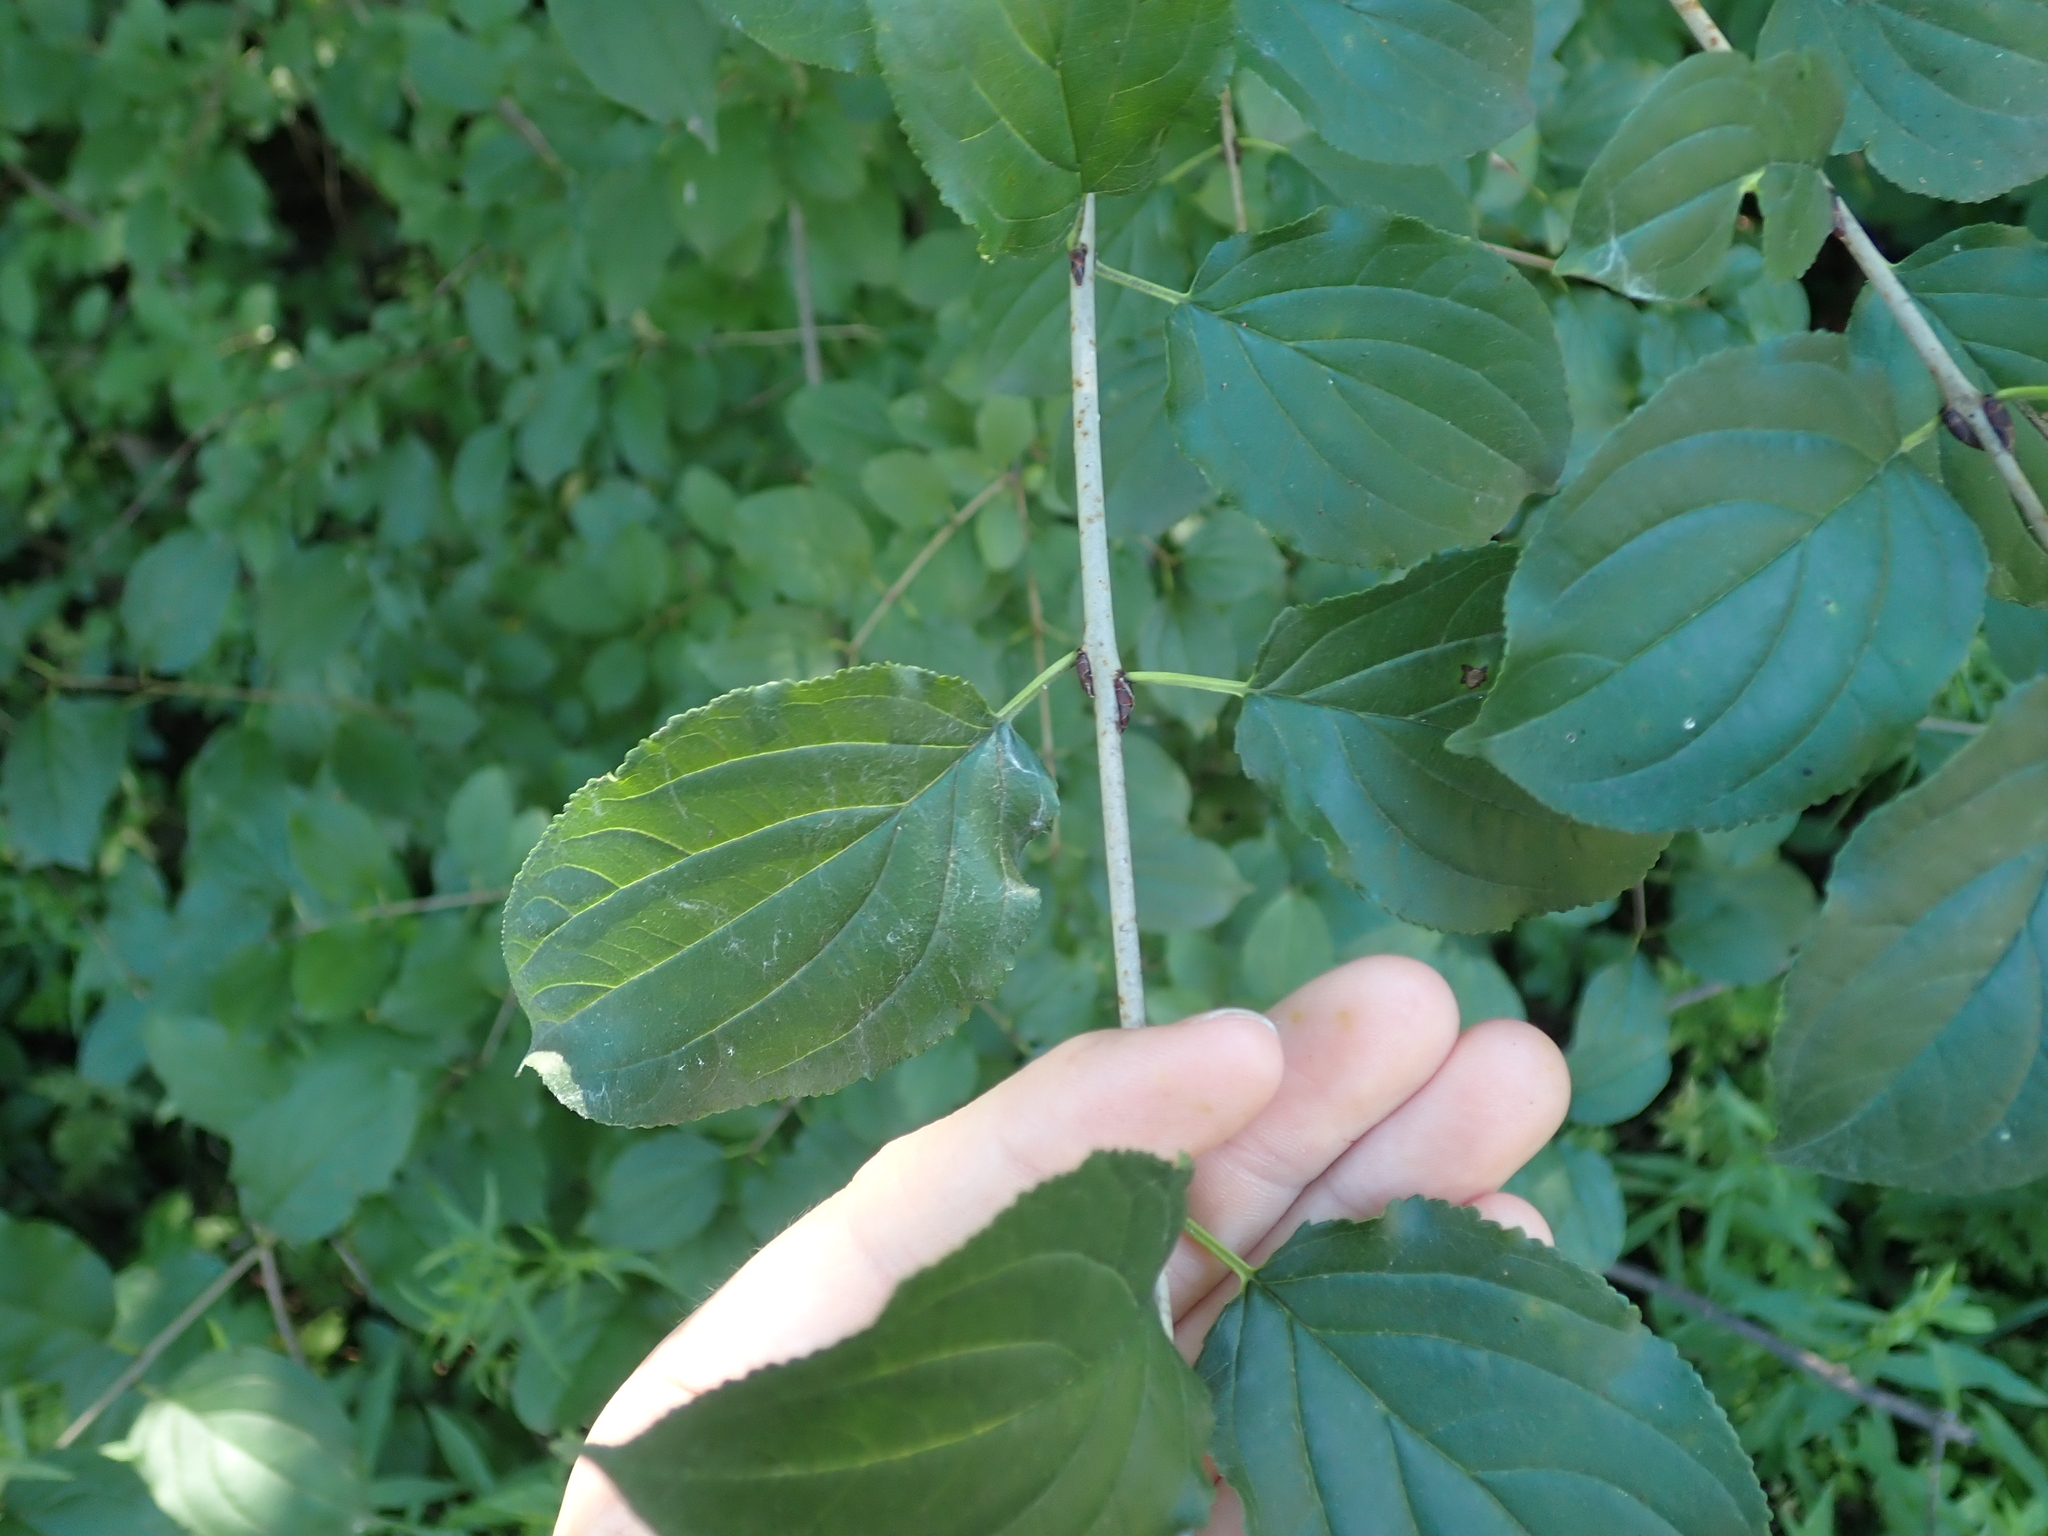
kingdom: Plantae
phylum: Tracheophyta
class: Magnoliopsida
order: Rosales
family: Rhamnaceae
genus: Rhamnus
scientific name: Rhamnus cathartica
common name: Common buckthorn
